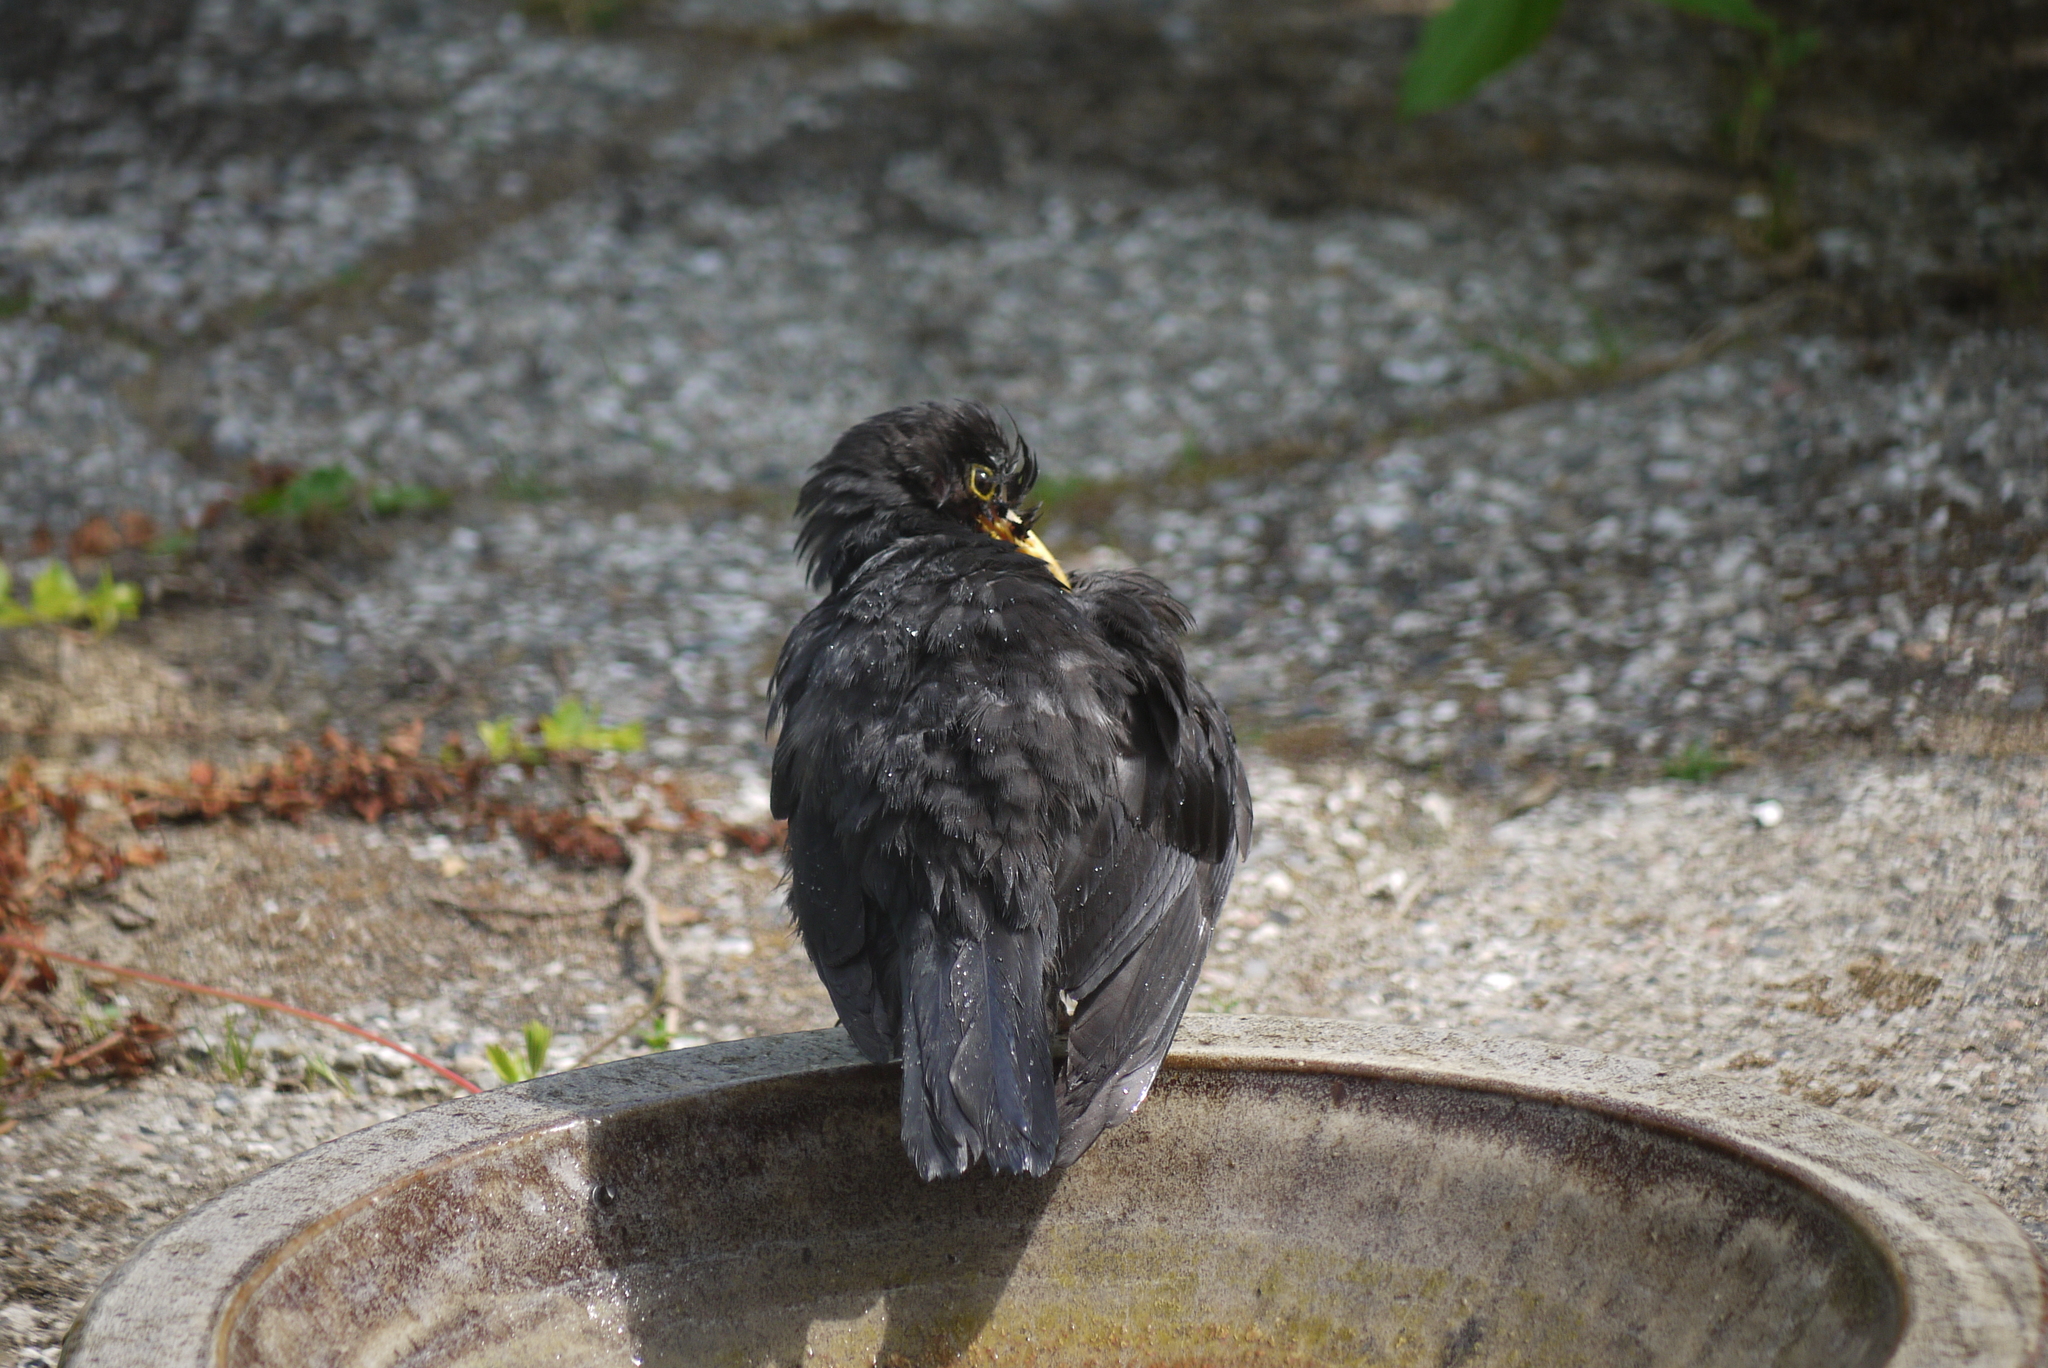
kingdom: Animalia
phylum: Chordata
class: Aves
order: Passeriformes
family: Turdidae
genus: Turdus
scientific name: Turdus merula
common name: Common blackbird
